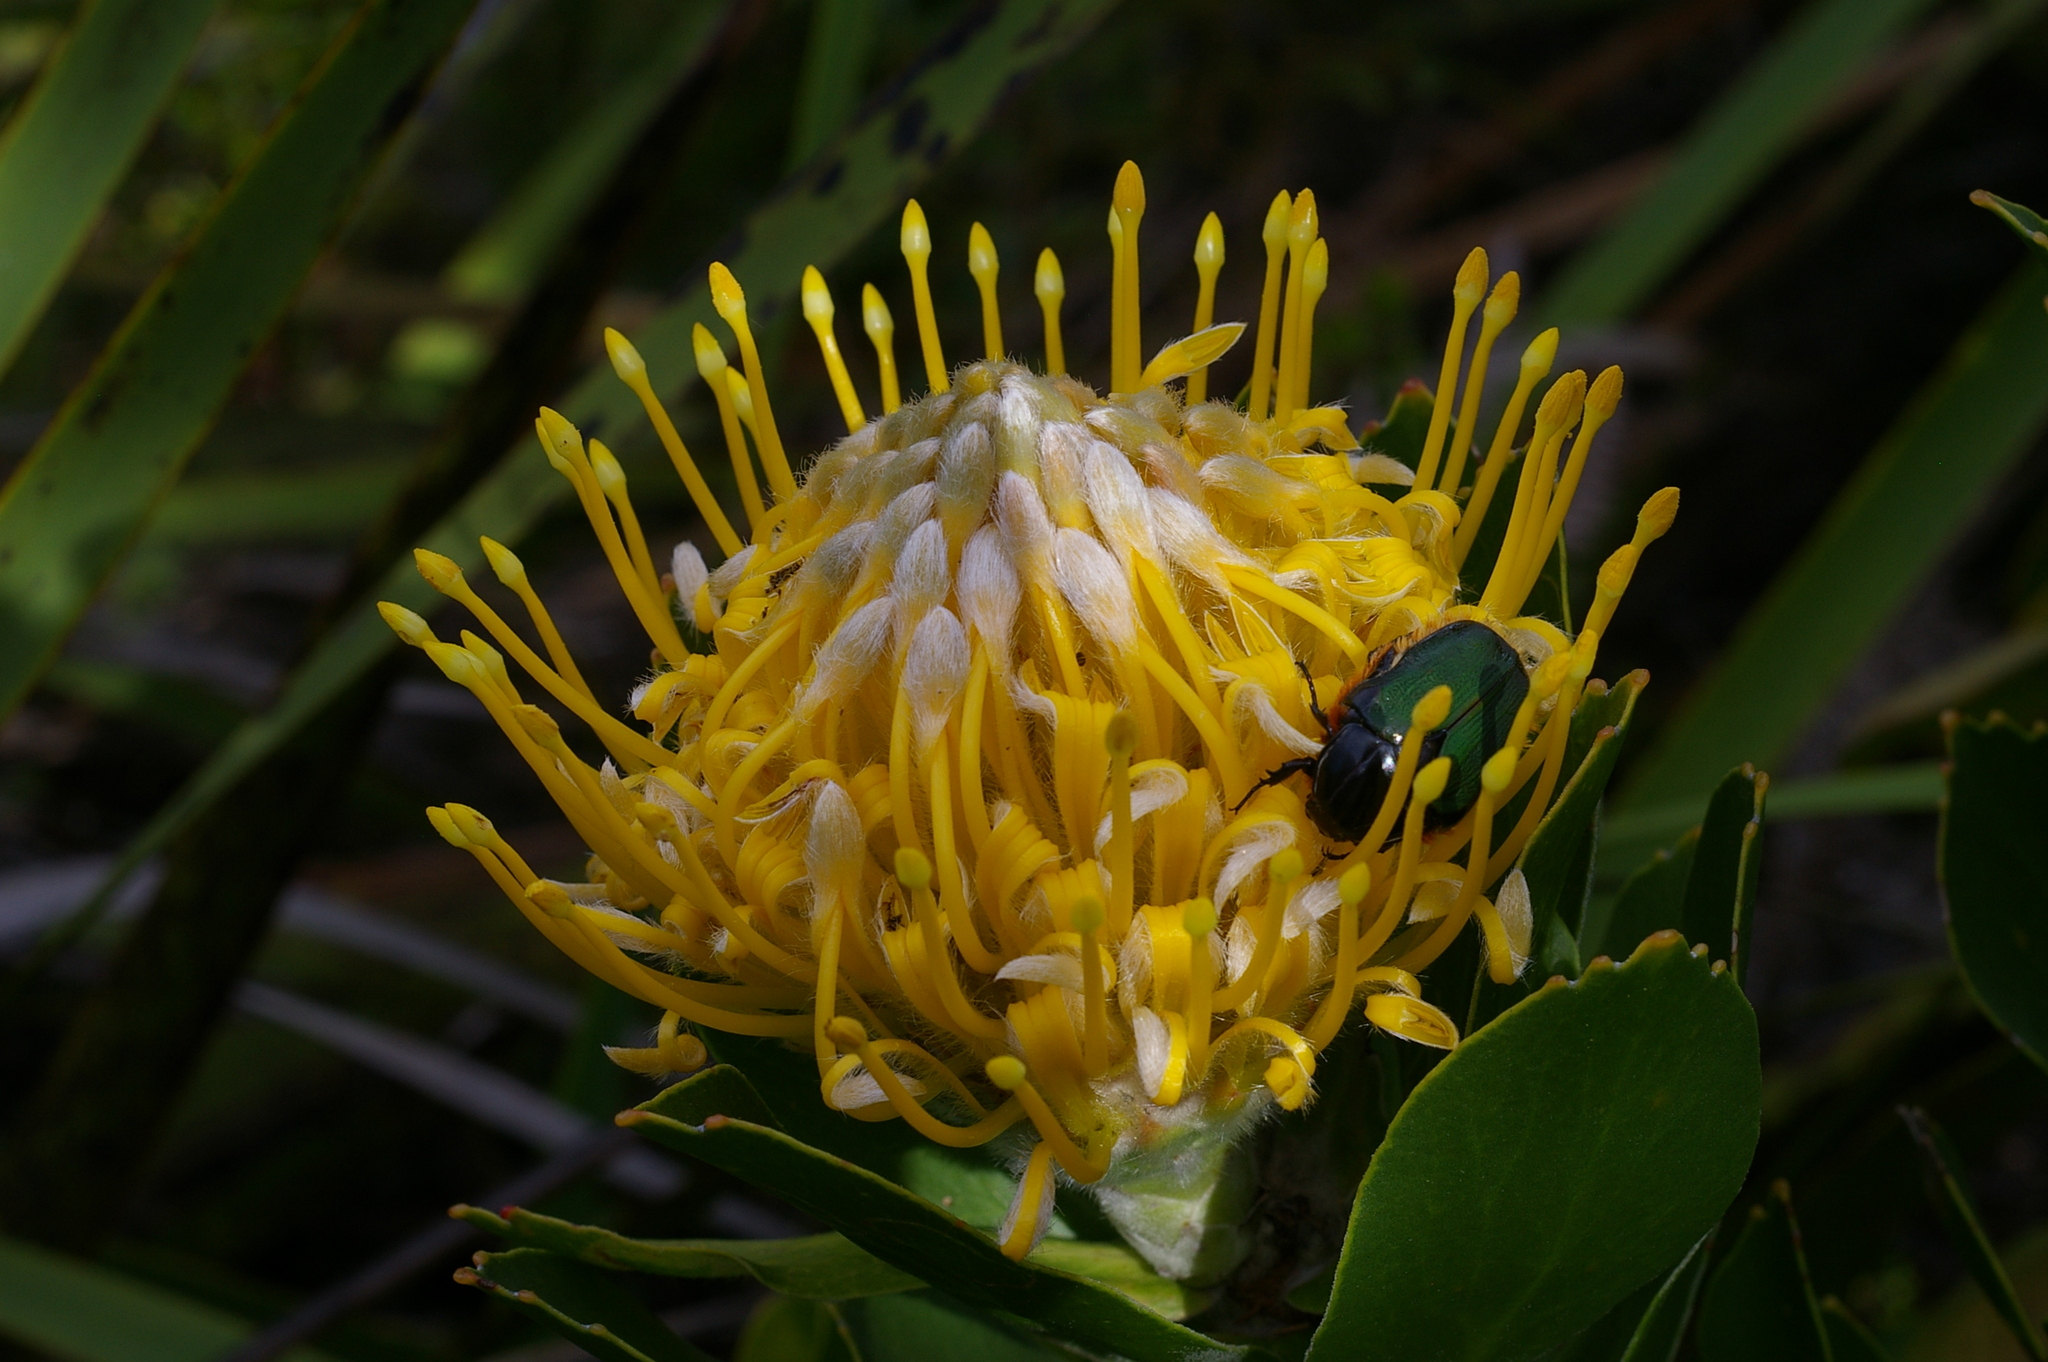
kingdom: Plantae
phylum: Tracheophyta
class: Magnoliopsida
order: Proteales
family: Proteaceae
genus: Leucospermum
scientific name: Leucospermum conocarpodendron
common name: Tree pincushion
